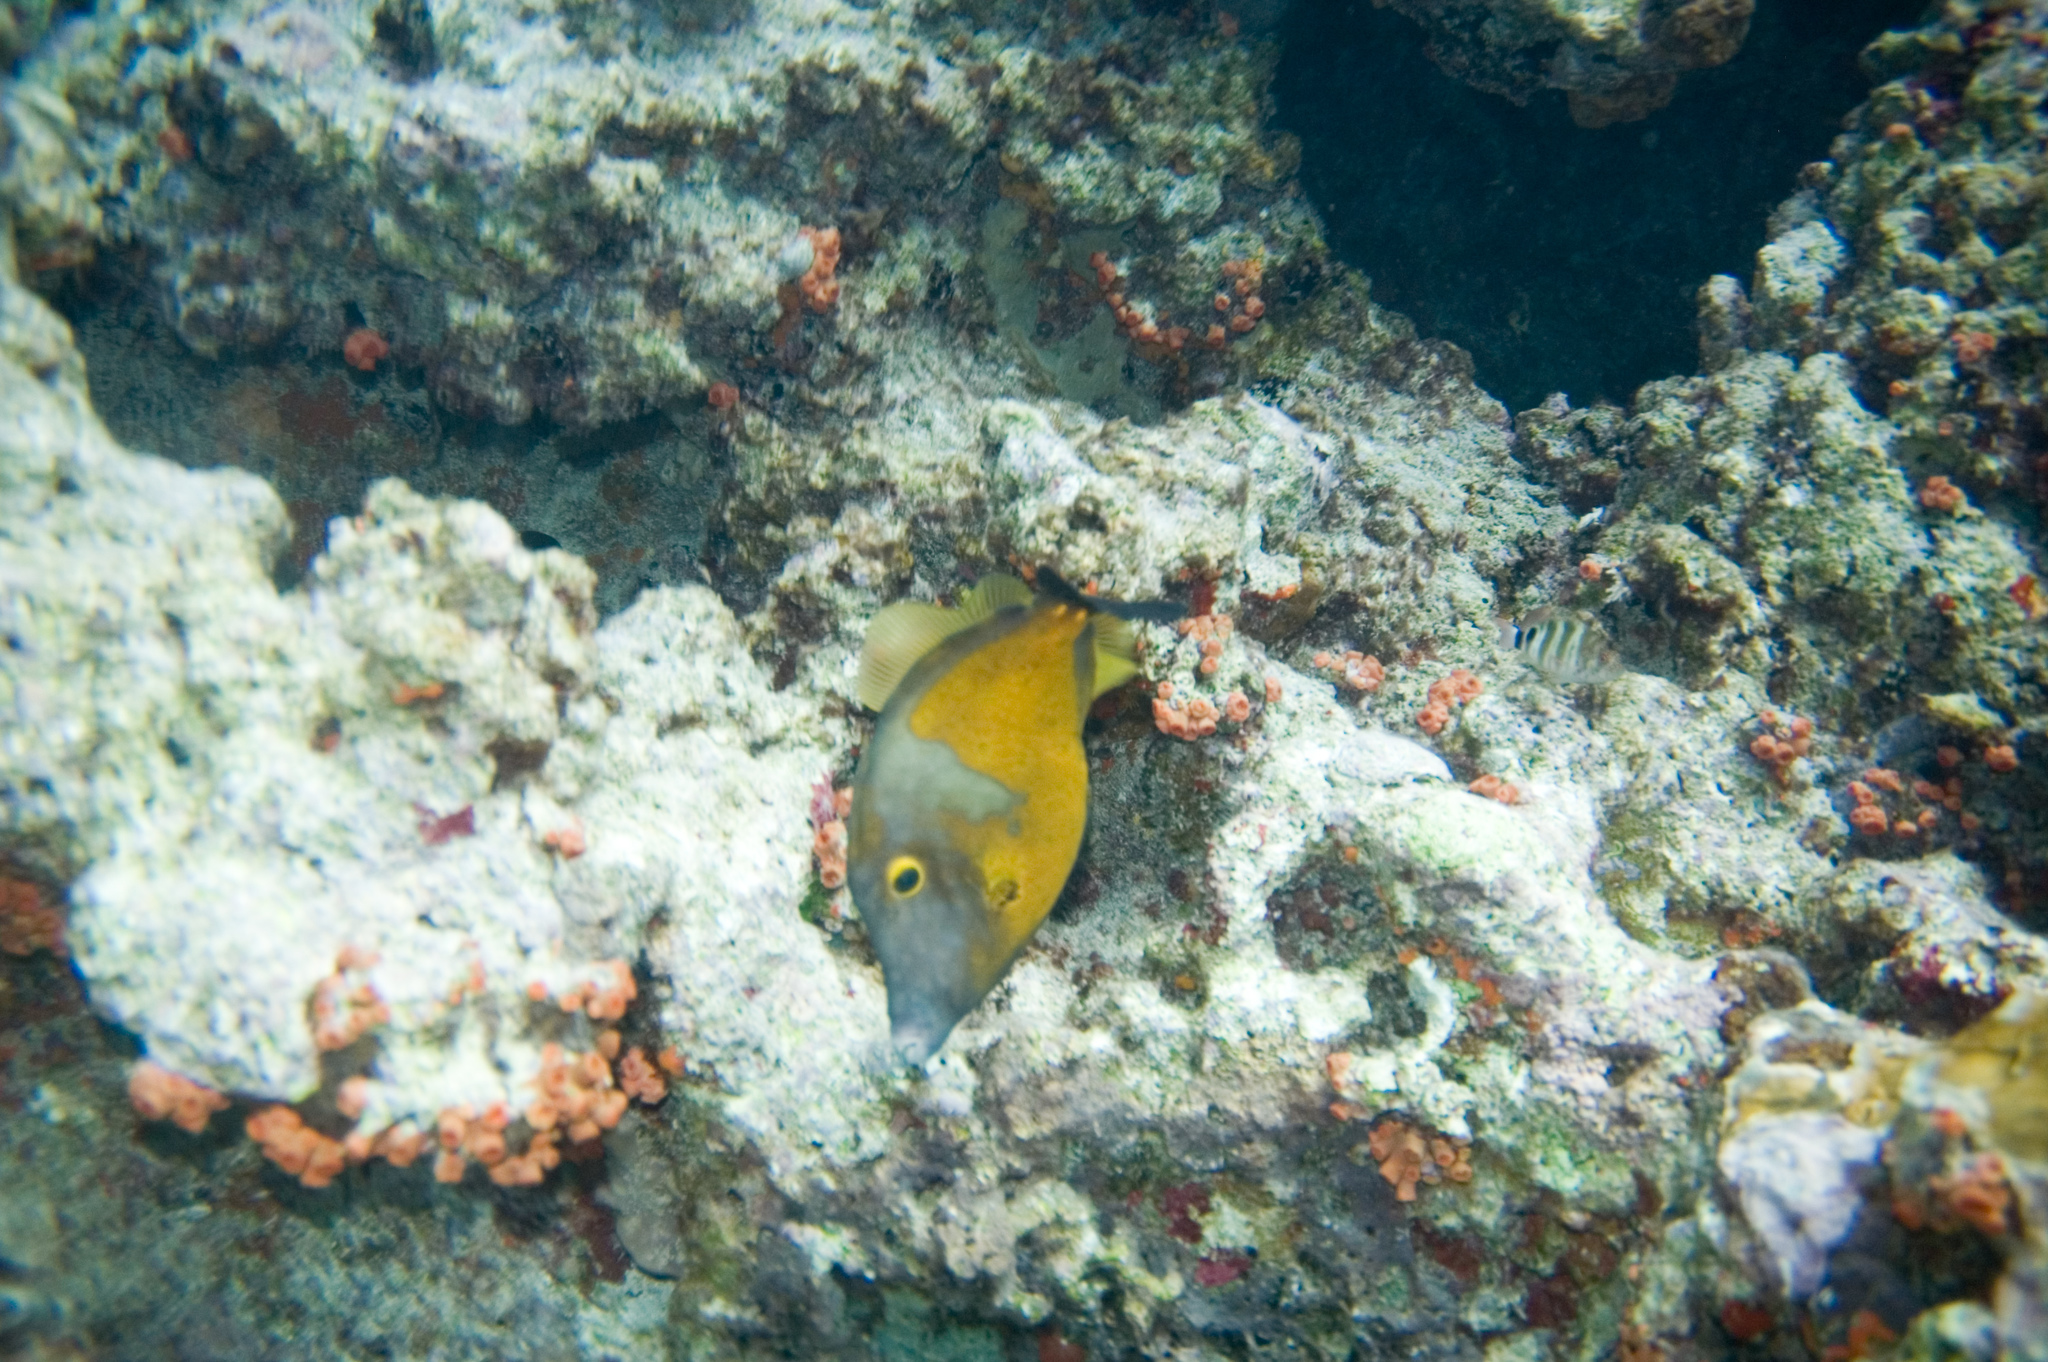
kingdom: Animalia
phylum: Chordata
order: Tetraodontiformes
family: Monacanthidae
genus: Cantherhines
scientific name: Cantherhines macrocerus
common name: Whitespotted filefish
